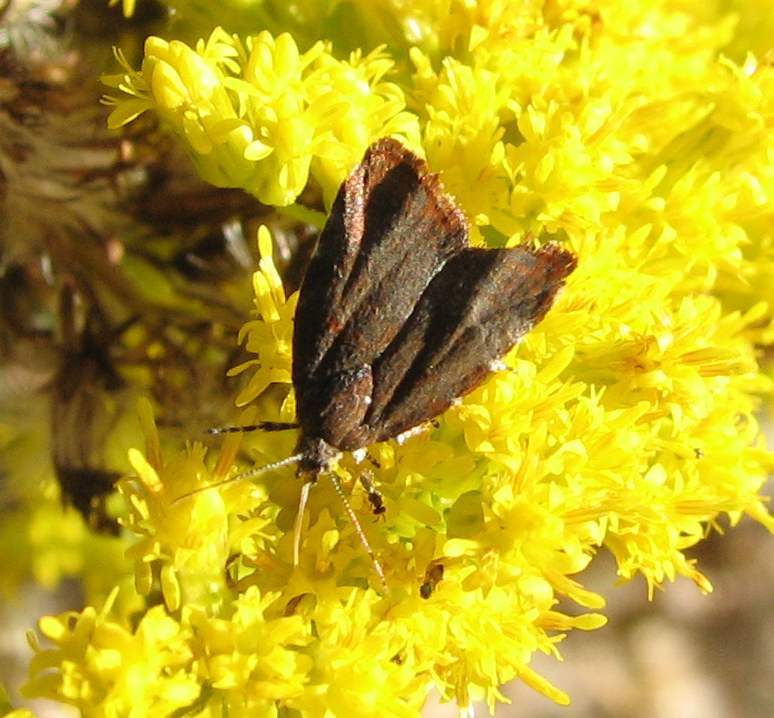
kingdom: Animalia
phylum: Arthropoda
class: Insecta
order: Lepidoptera
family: Choreutidae
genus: Choreutis
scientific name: Choreutis pariana
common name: Apple leaf skeletoniser
